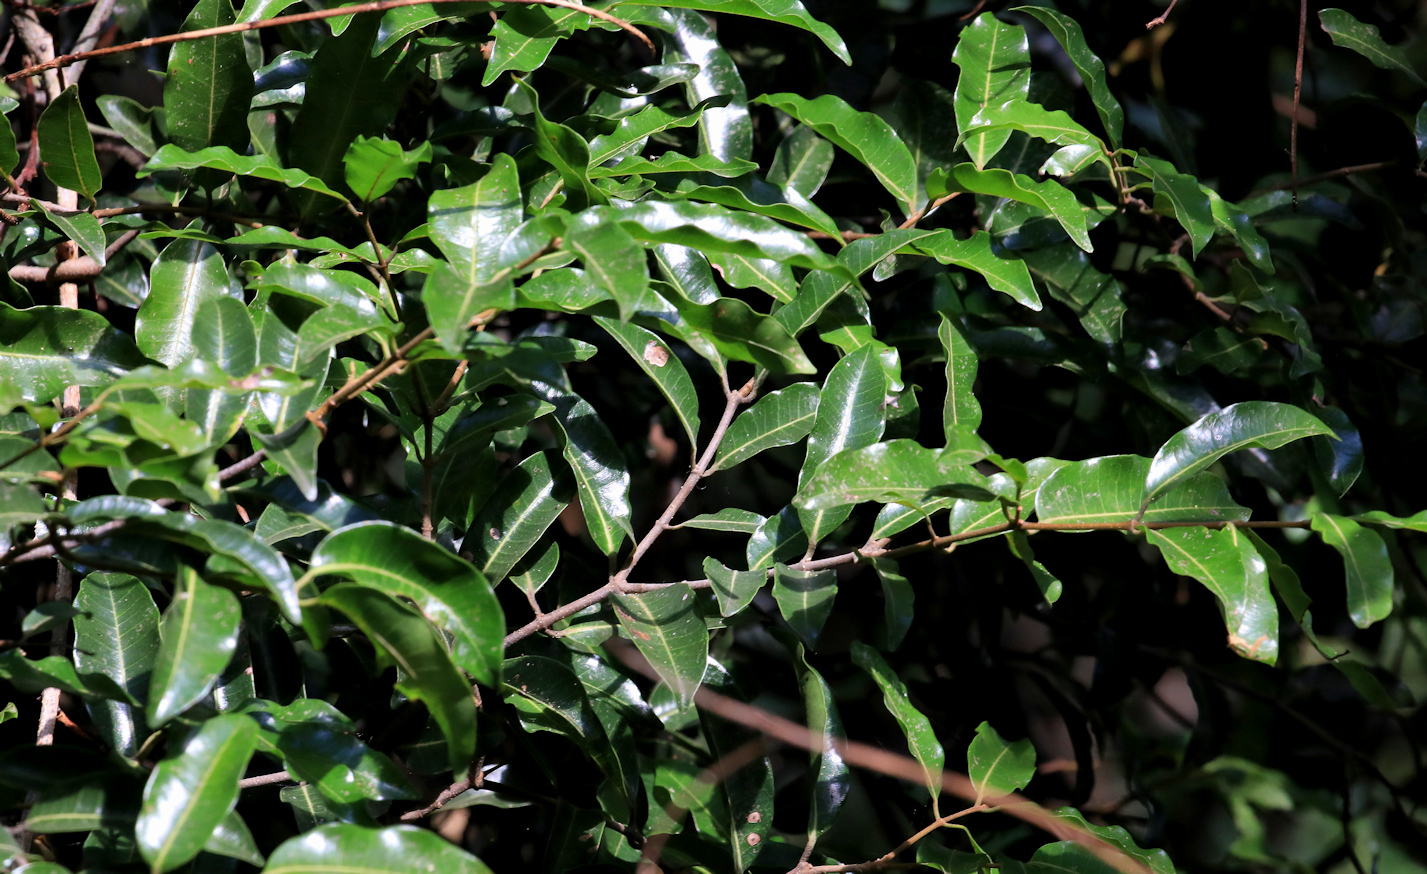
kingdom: Plantae
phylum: Tracheophyta
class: Magnoliopsida
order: Gentianales
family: Apocynaceae
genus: Landolphia
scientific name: Landolphia kirkii
